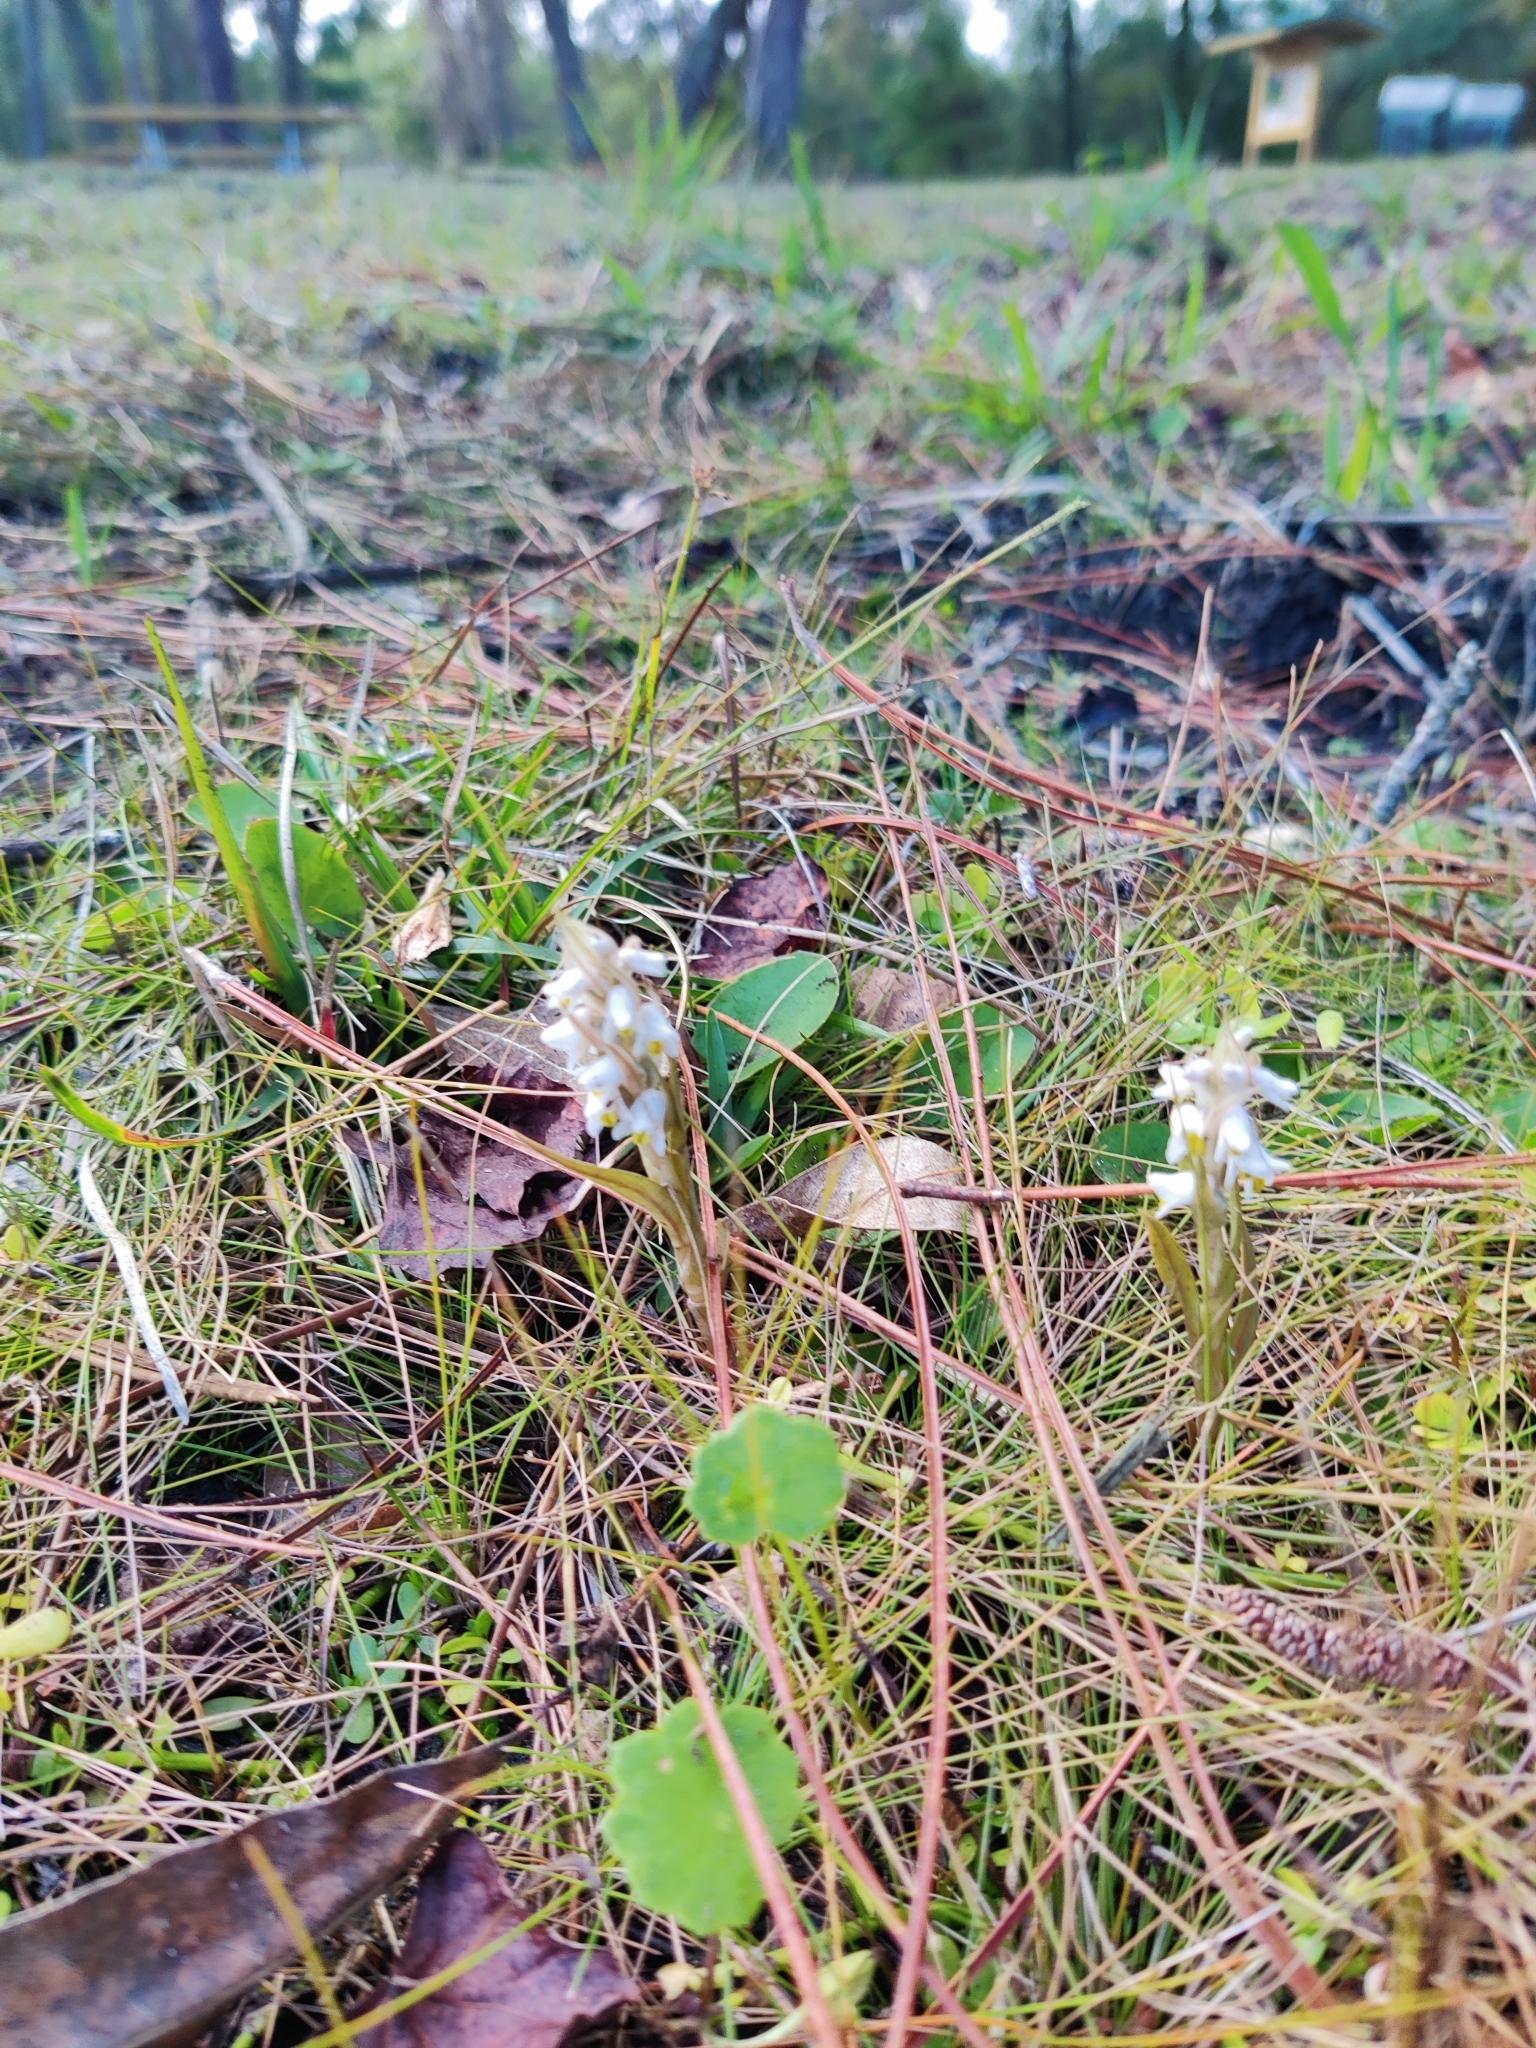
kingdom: Plantae
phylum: Tracheophyta
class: Liliopsida
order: Asparagales
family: Orchidaceae
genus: Zeuxine
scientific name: Zeuxine strateumatica
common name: Soldier's orchid
